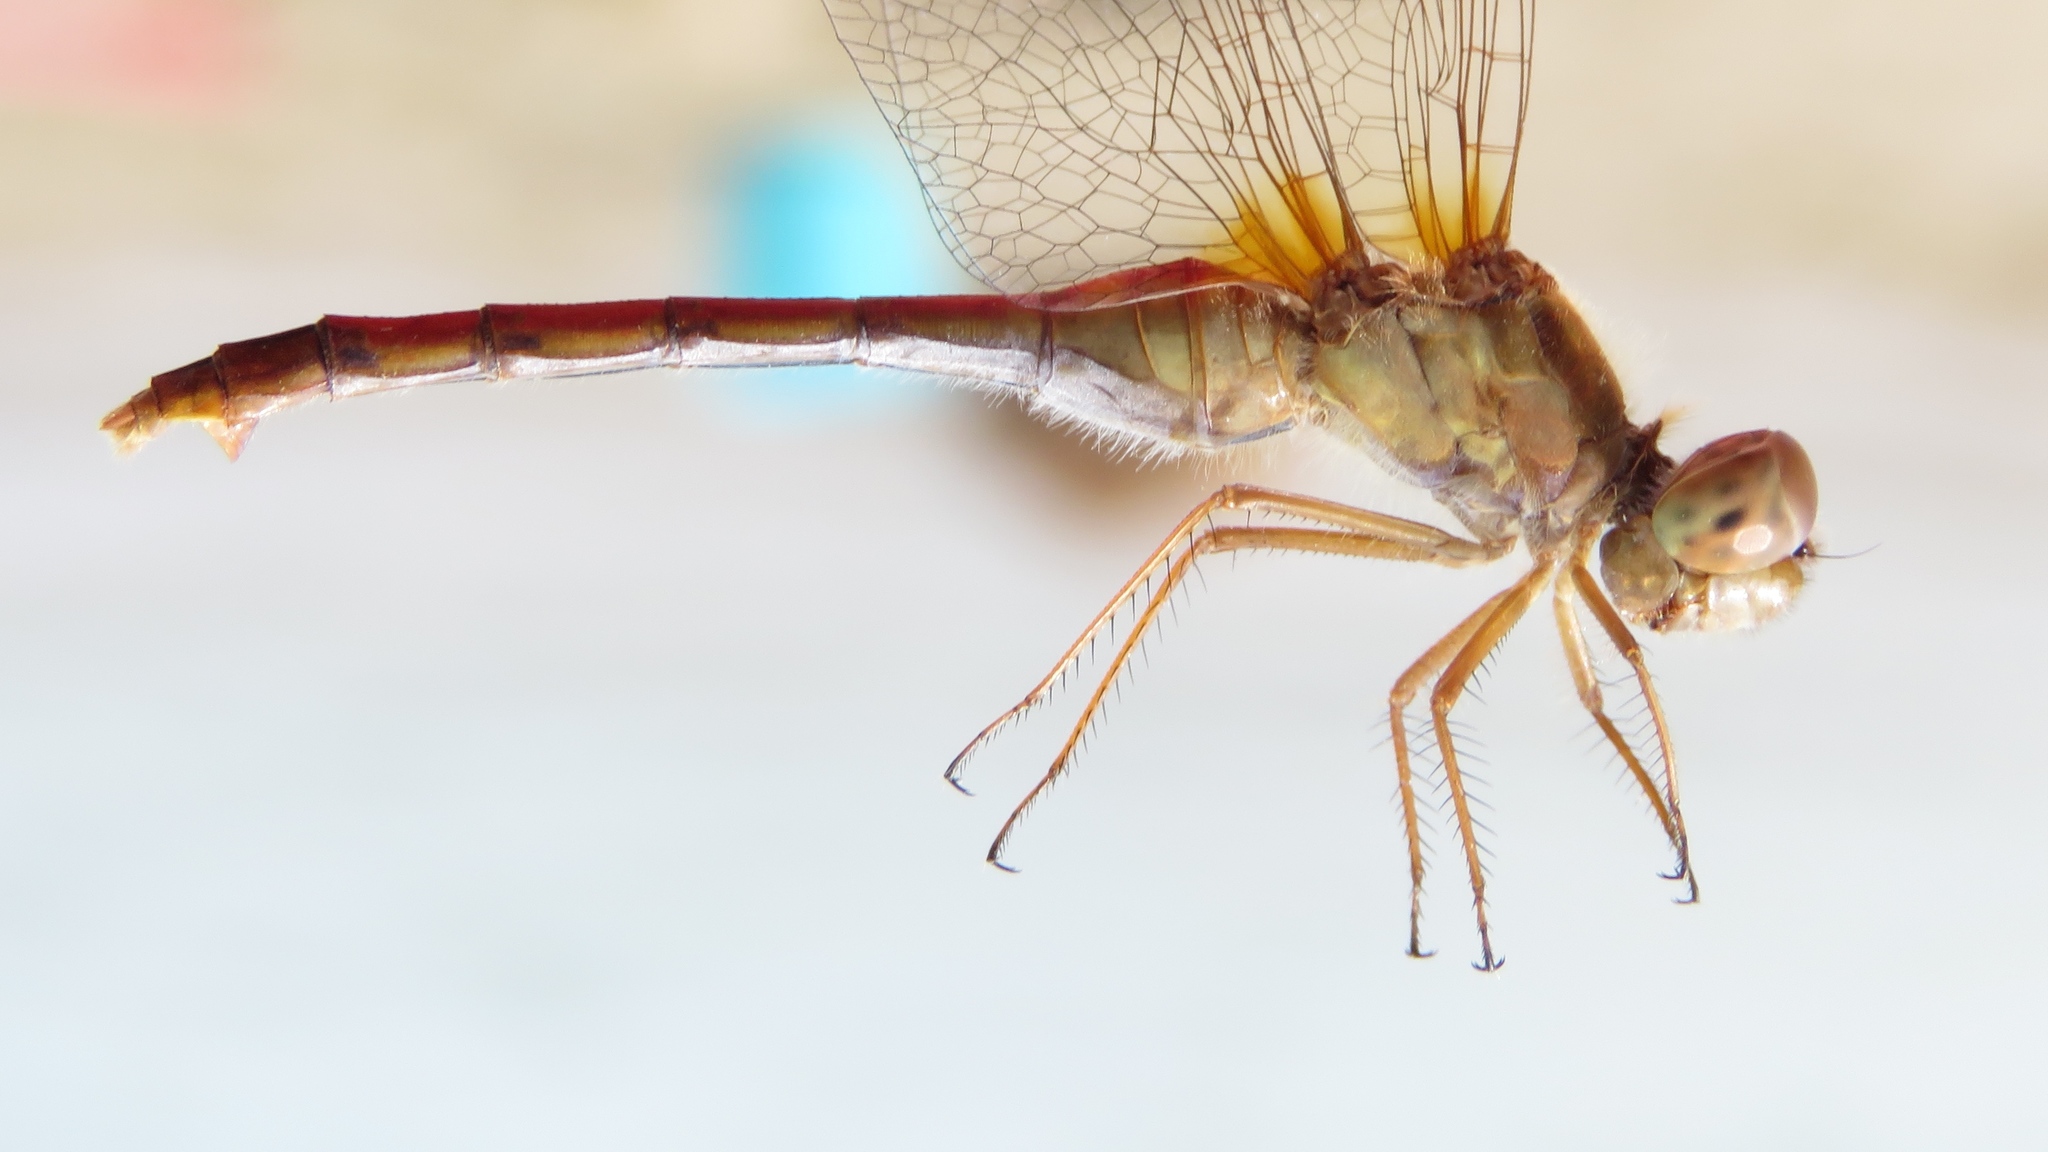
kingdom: Animalia
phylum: Arthropoda
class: Insecta
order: Odonata
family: Libellulidae
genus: Sympetrum
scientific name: Sympetrum vicinum
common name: Autumn meadowhawk
